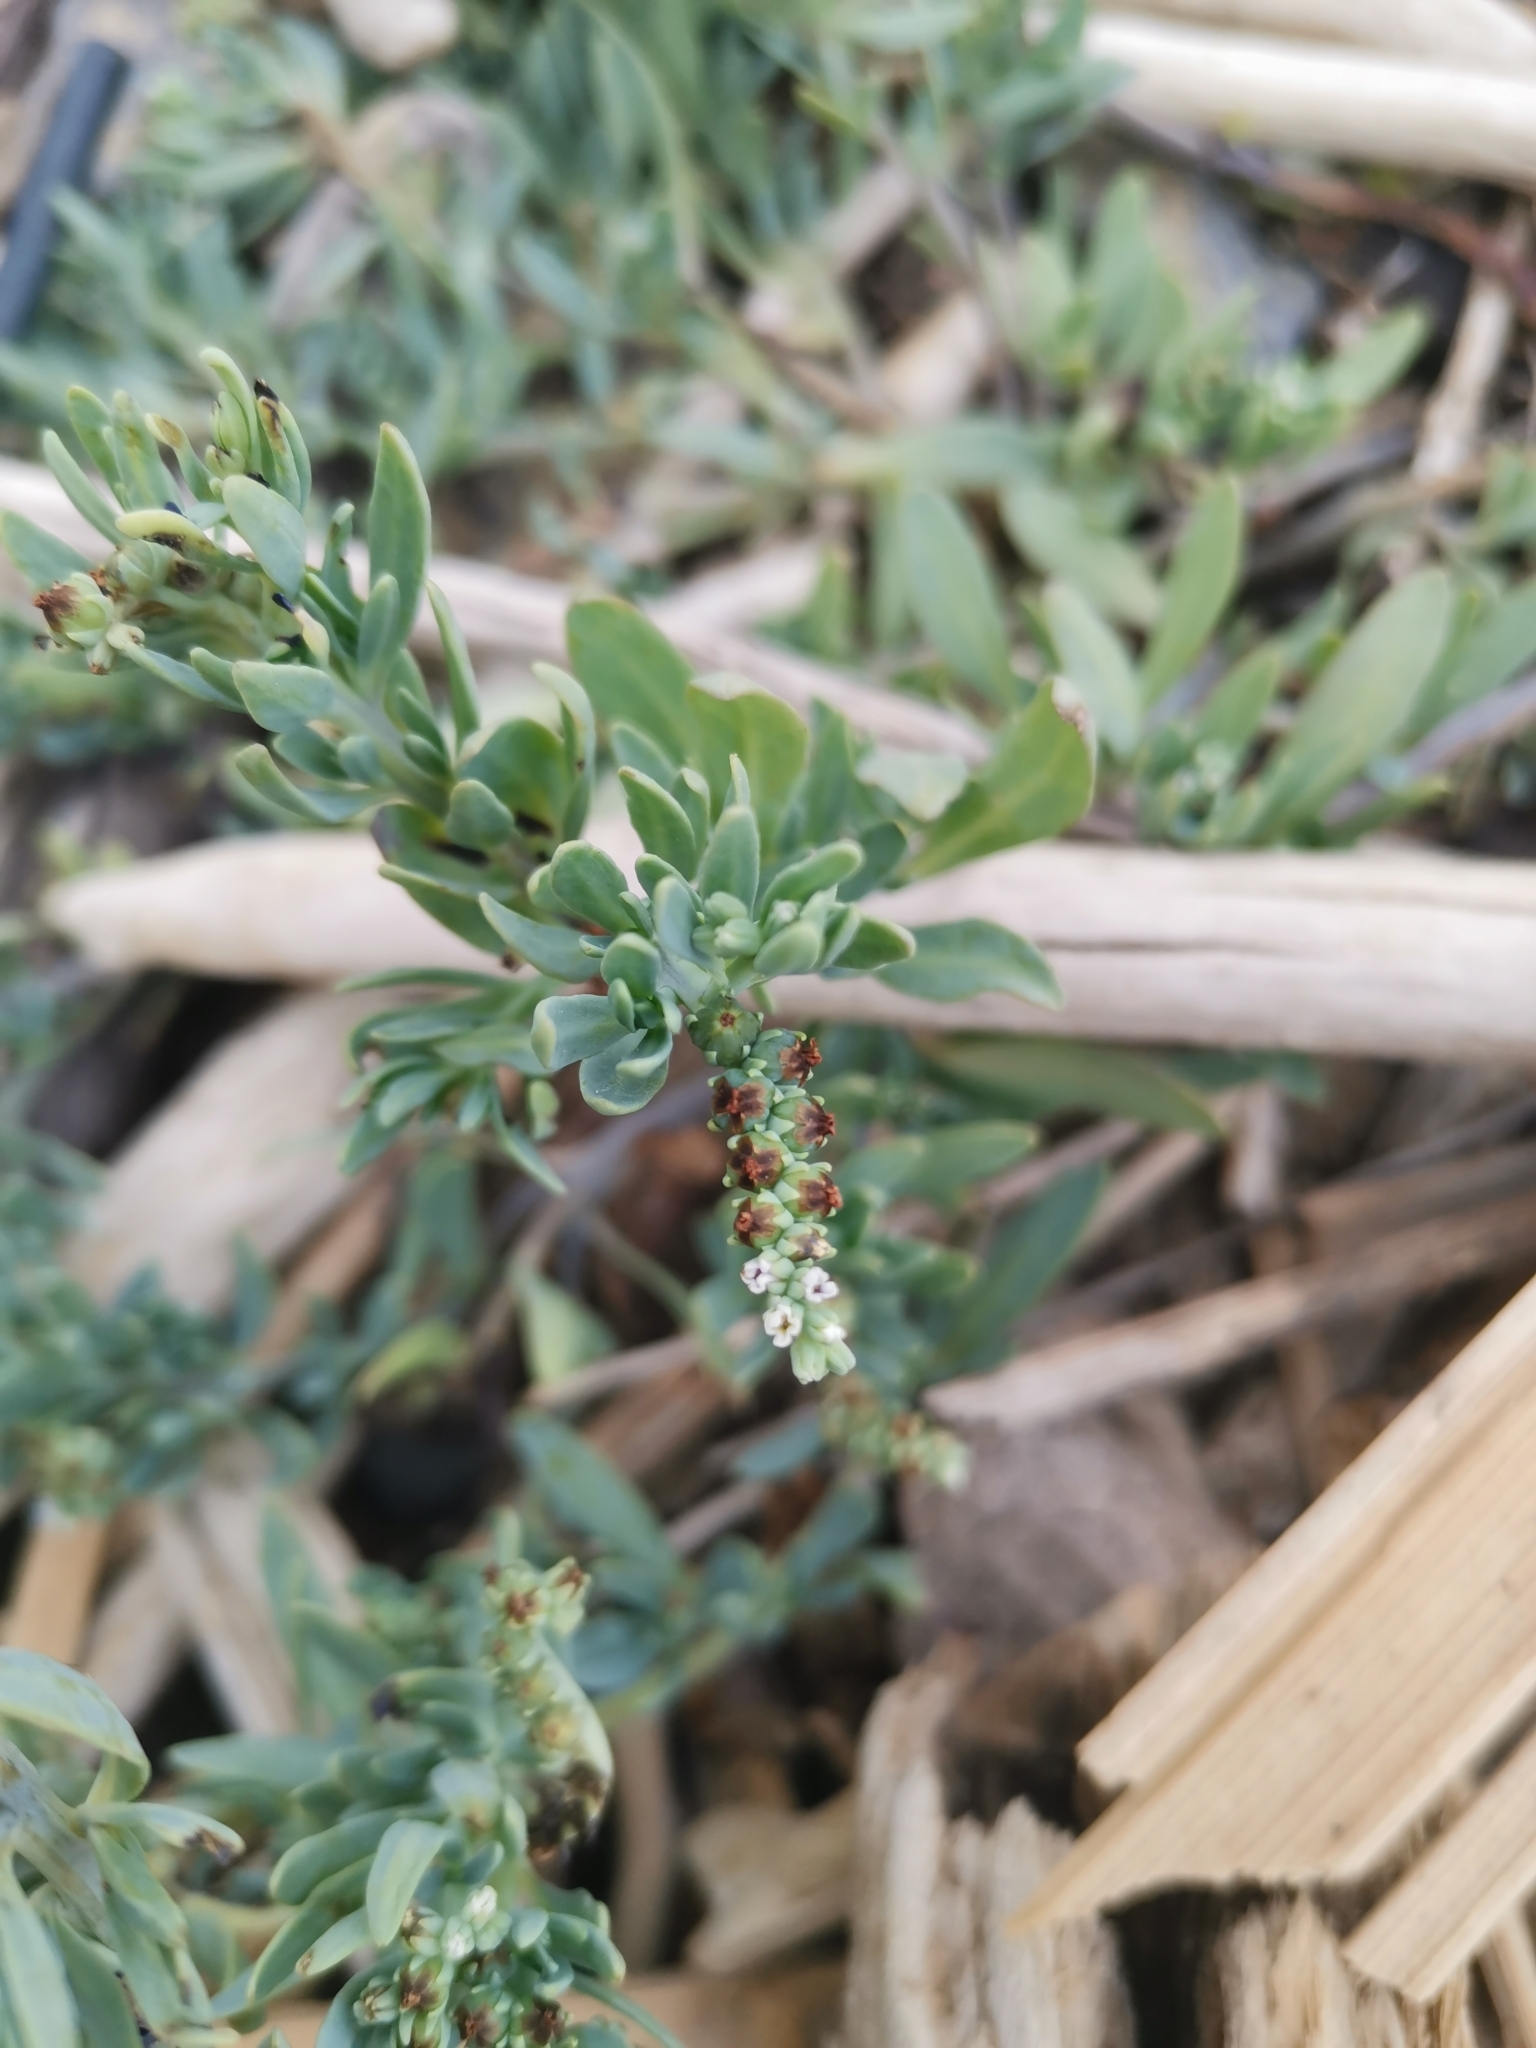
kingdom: Plantae
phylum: Tracheophyta
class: Magnoliopsida
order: Boraginales
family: Heliotropiaceae
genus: Heliotropium
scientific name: Heliotropium curassavicum
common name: Seaside heliotrope
